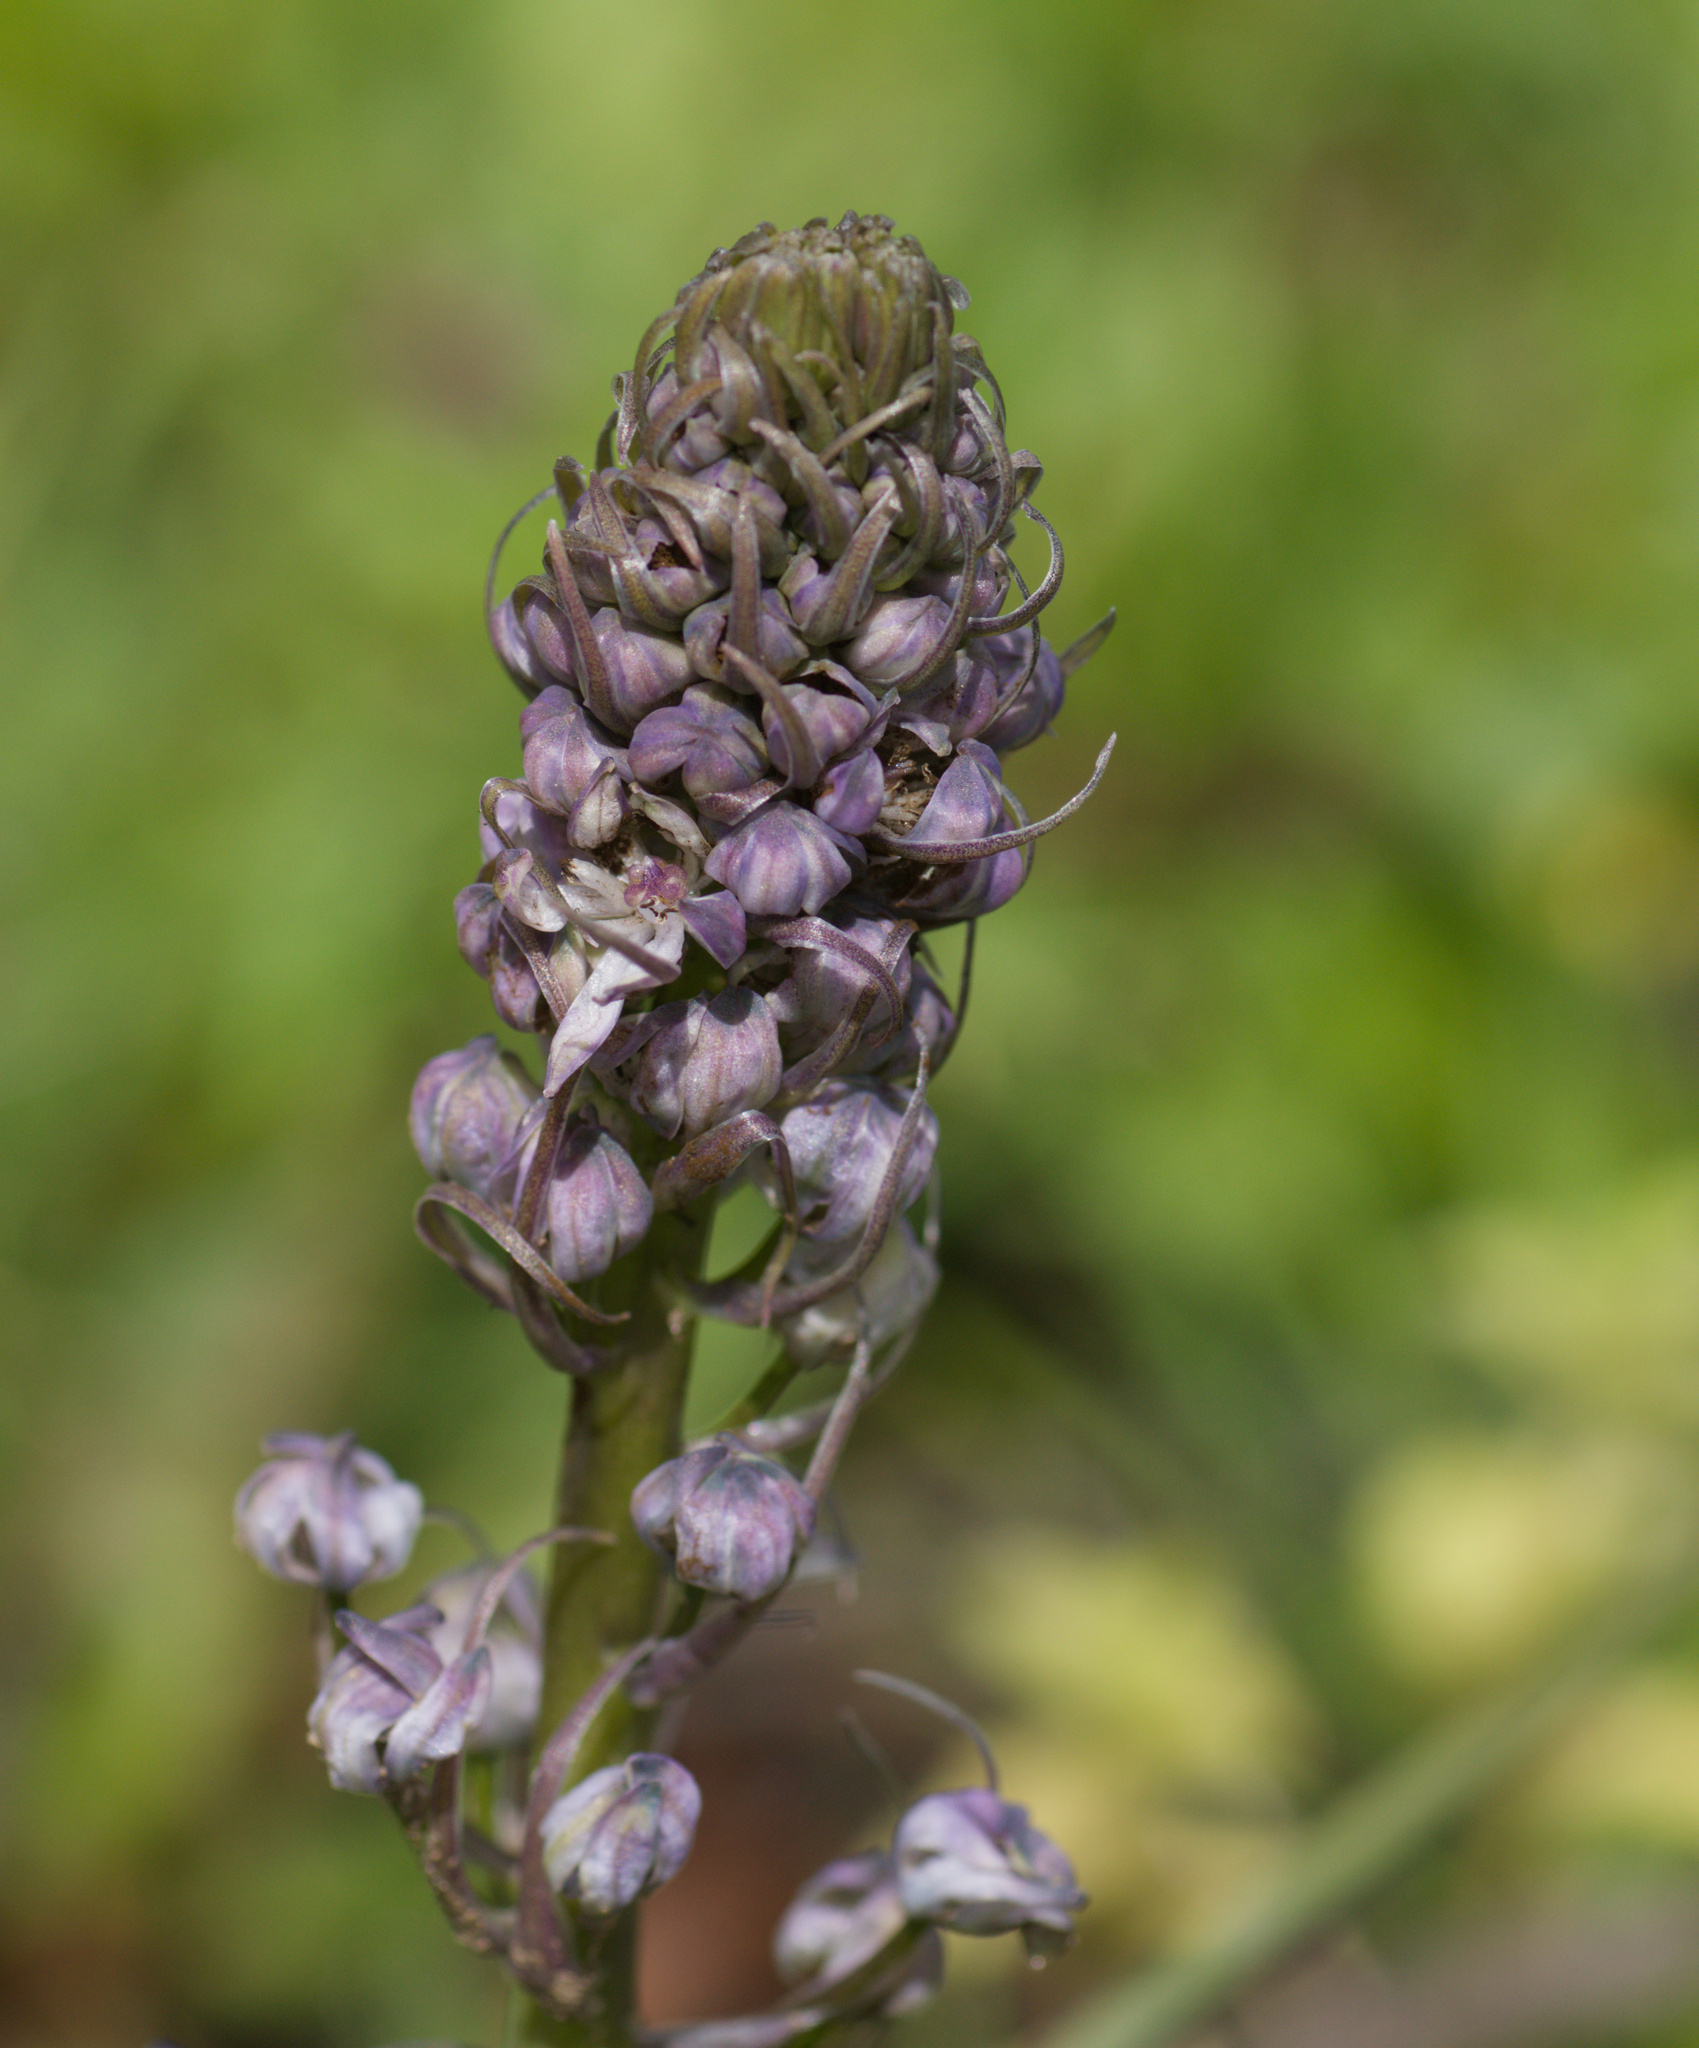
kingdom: Plantae
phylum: Tracheophyta
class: Liliopsida
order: Asparagales
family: Orchidaceae
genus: Himantoglossum
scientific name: Himantoglossum robertianum
